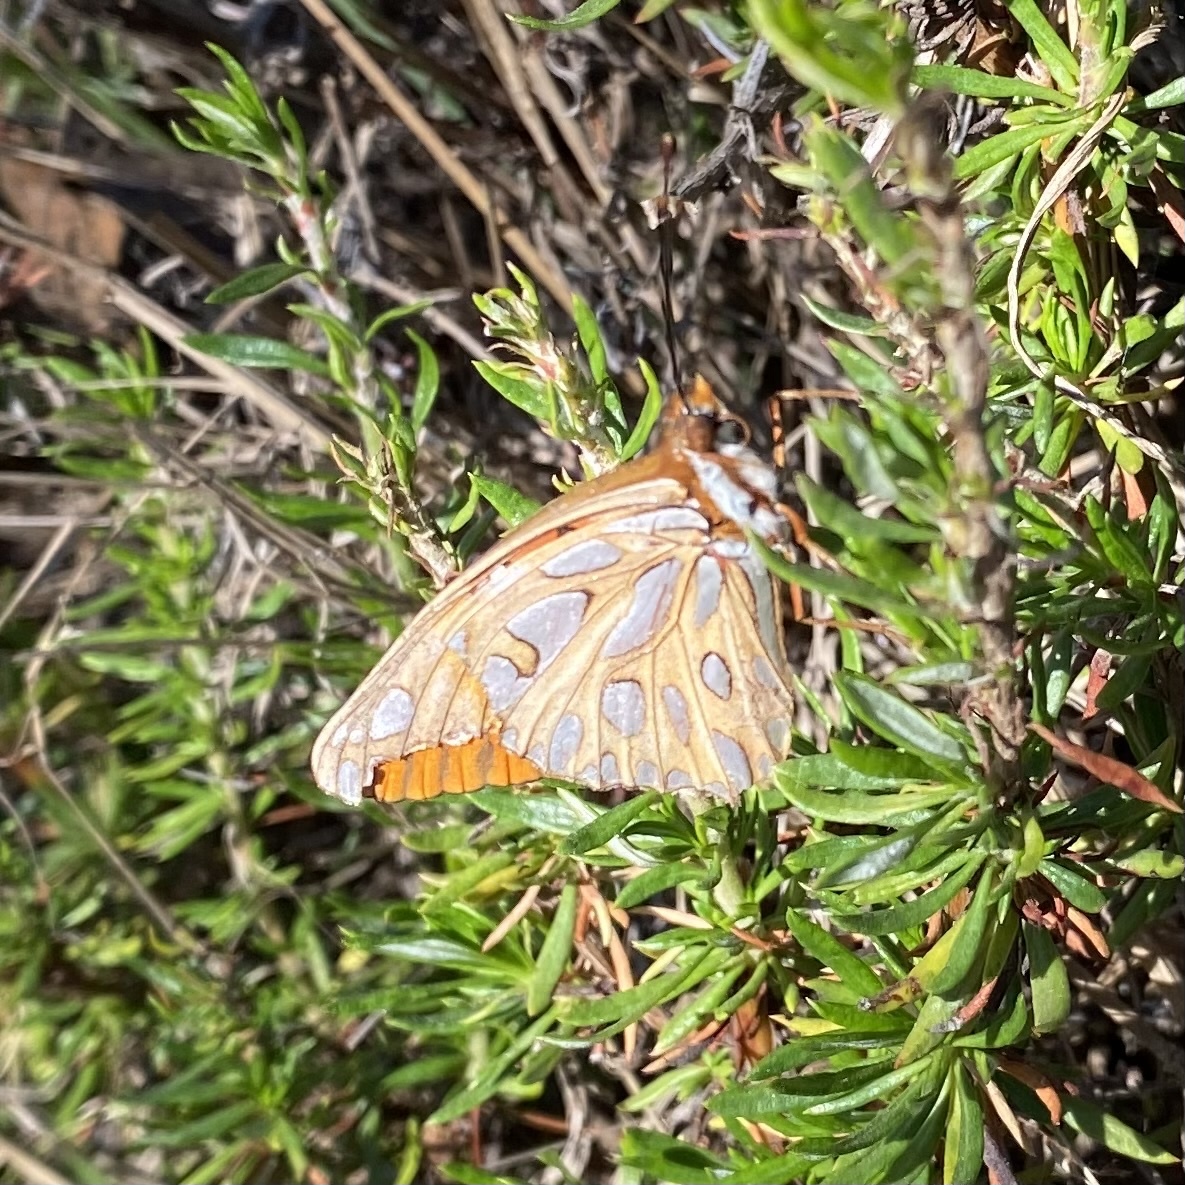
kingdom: Animalia
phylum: Arthropoda
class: Insecta
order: Lepidoptera
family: Nymphalidae
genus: Dione
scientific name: Dione vanillae
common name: Gulf fritillary
